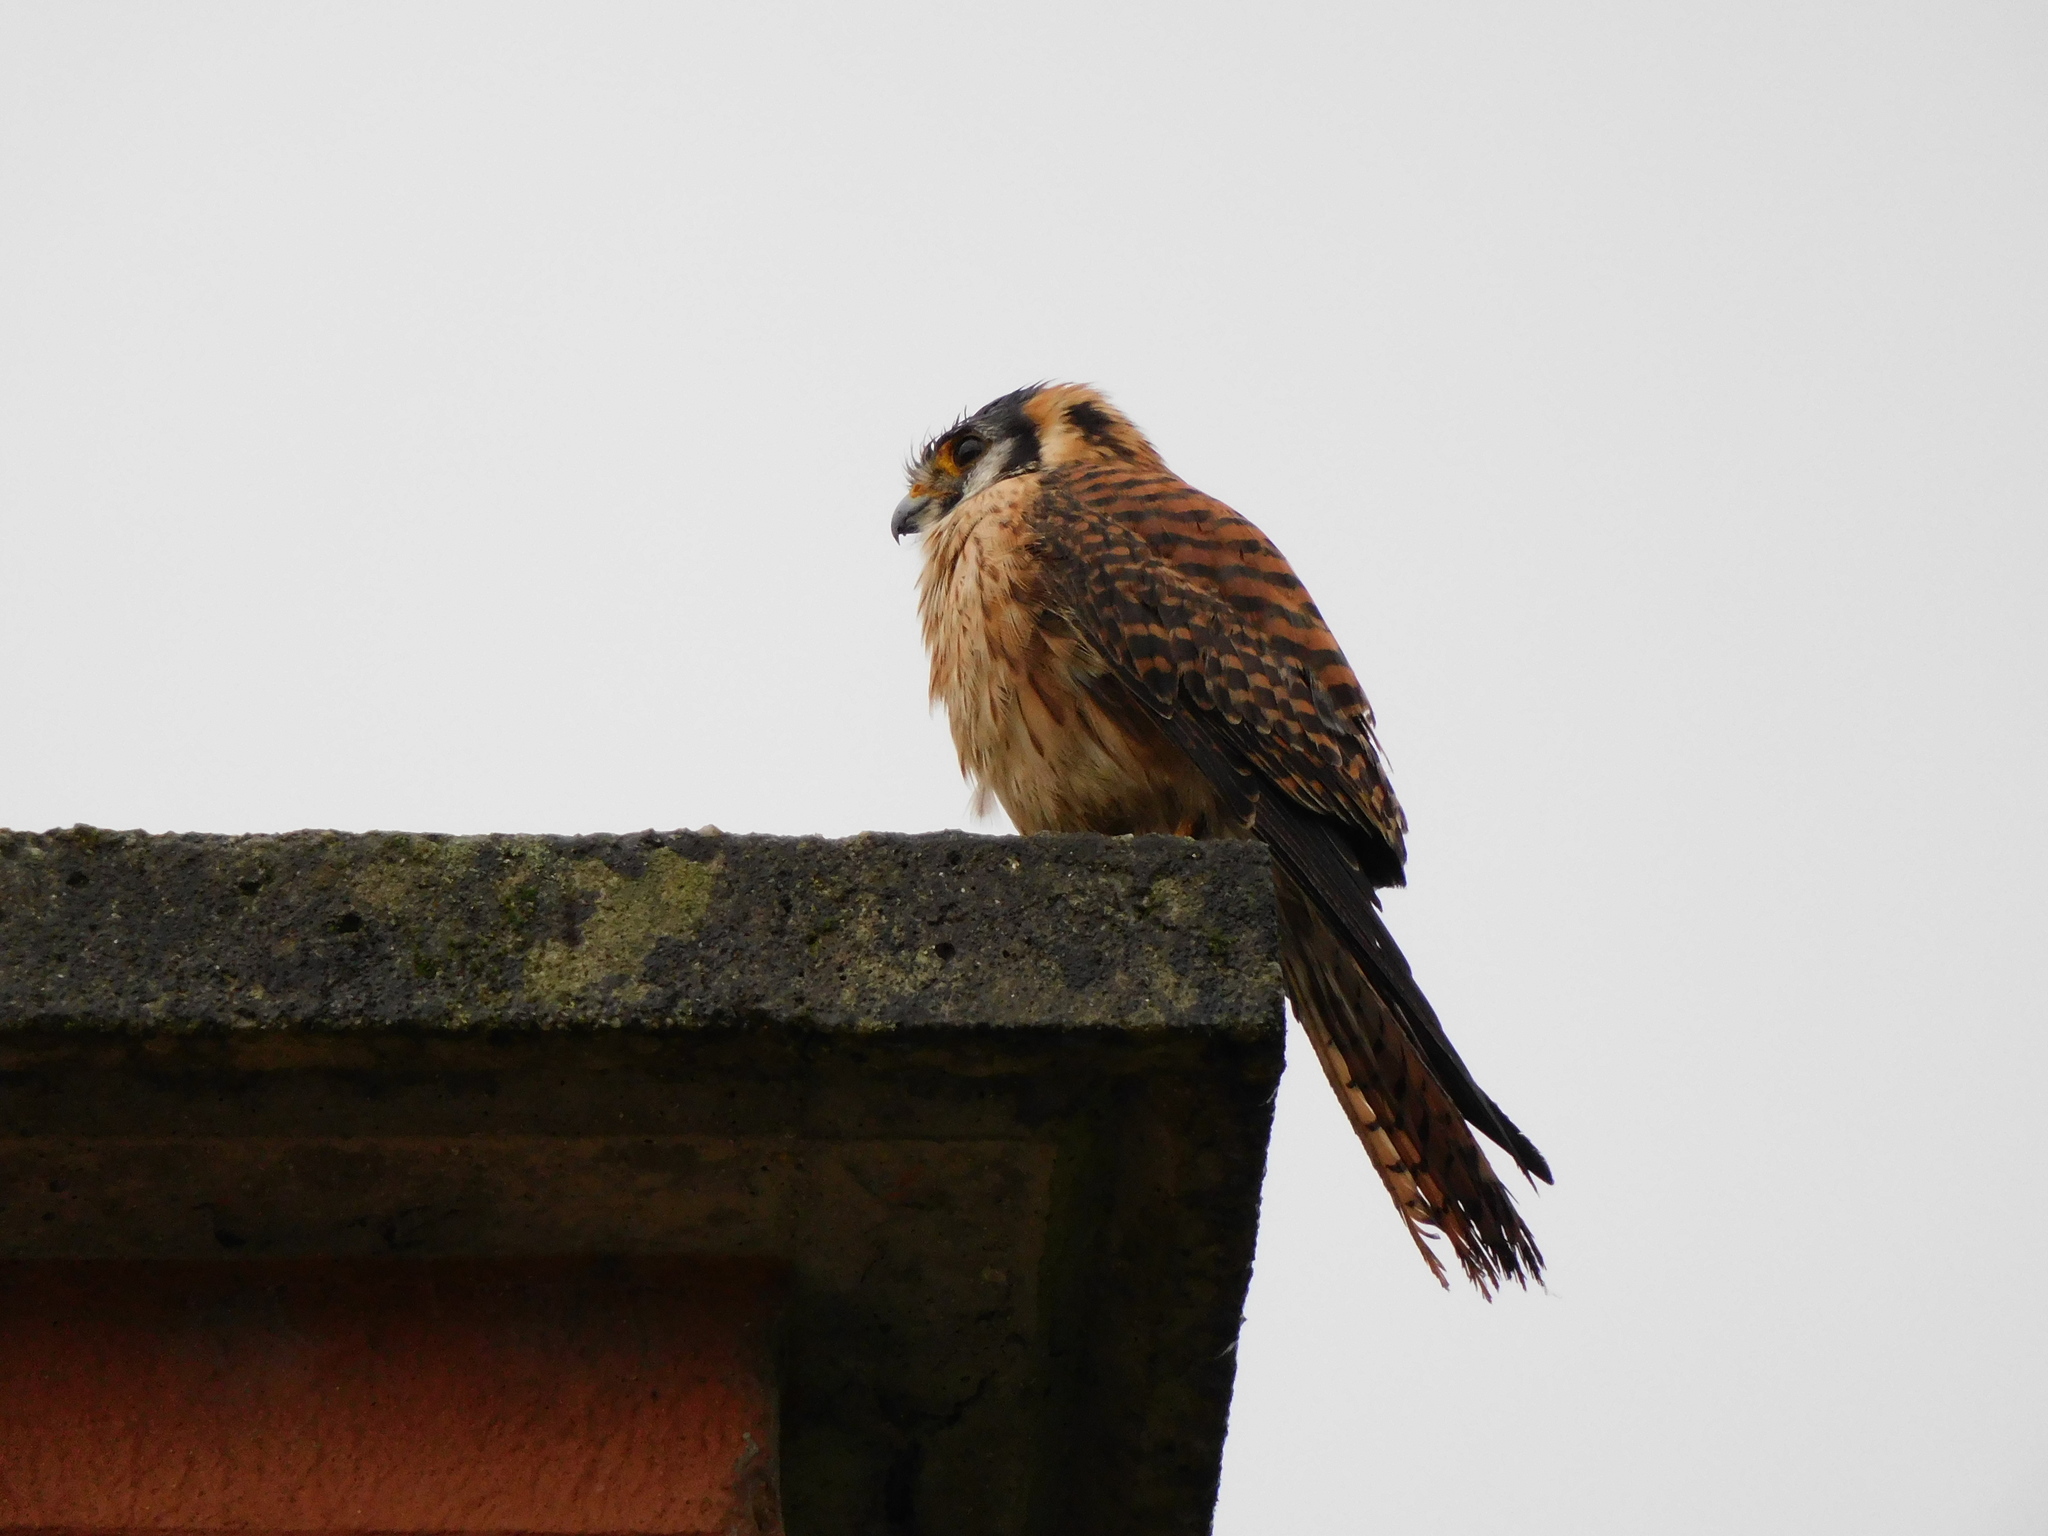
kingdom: Animalia
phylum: Chordata
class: Aves
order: Falconiformes
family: Falconidae
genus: Falco
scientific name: Falco sparverius
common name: American kestrel
